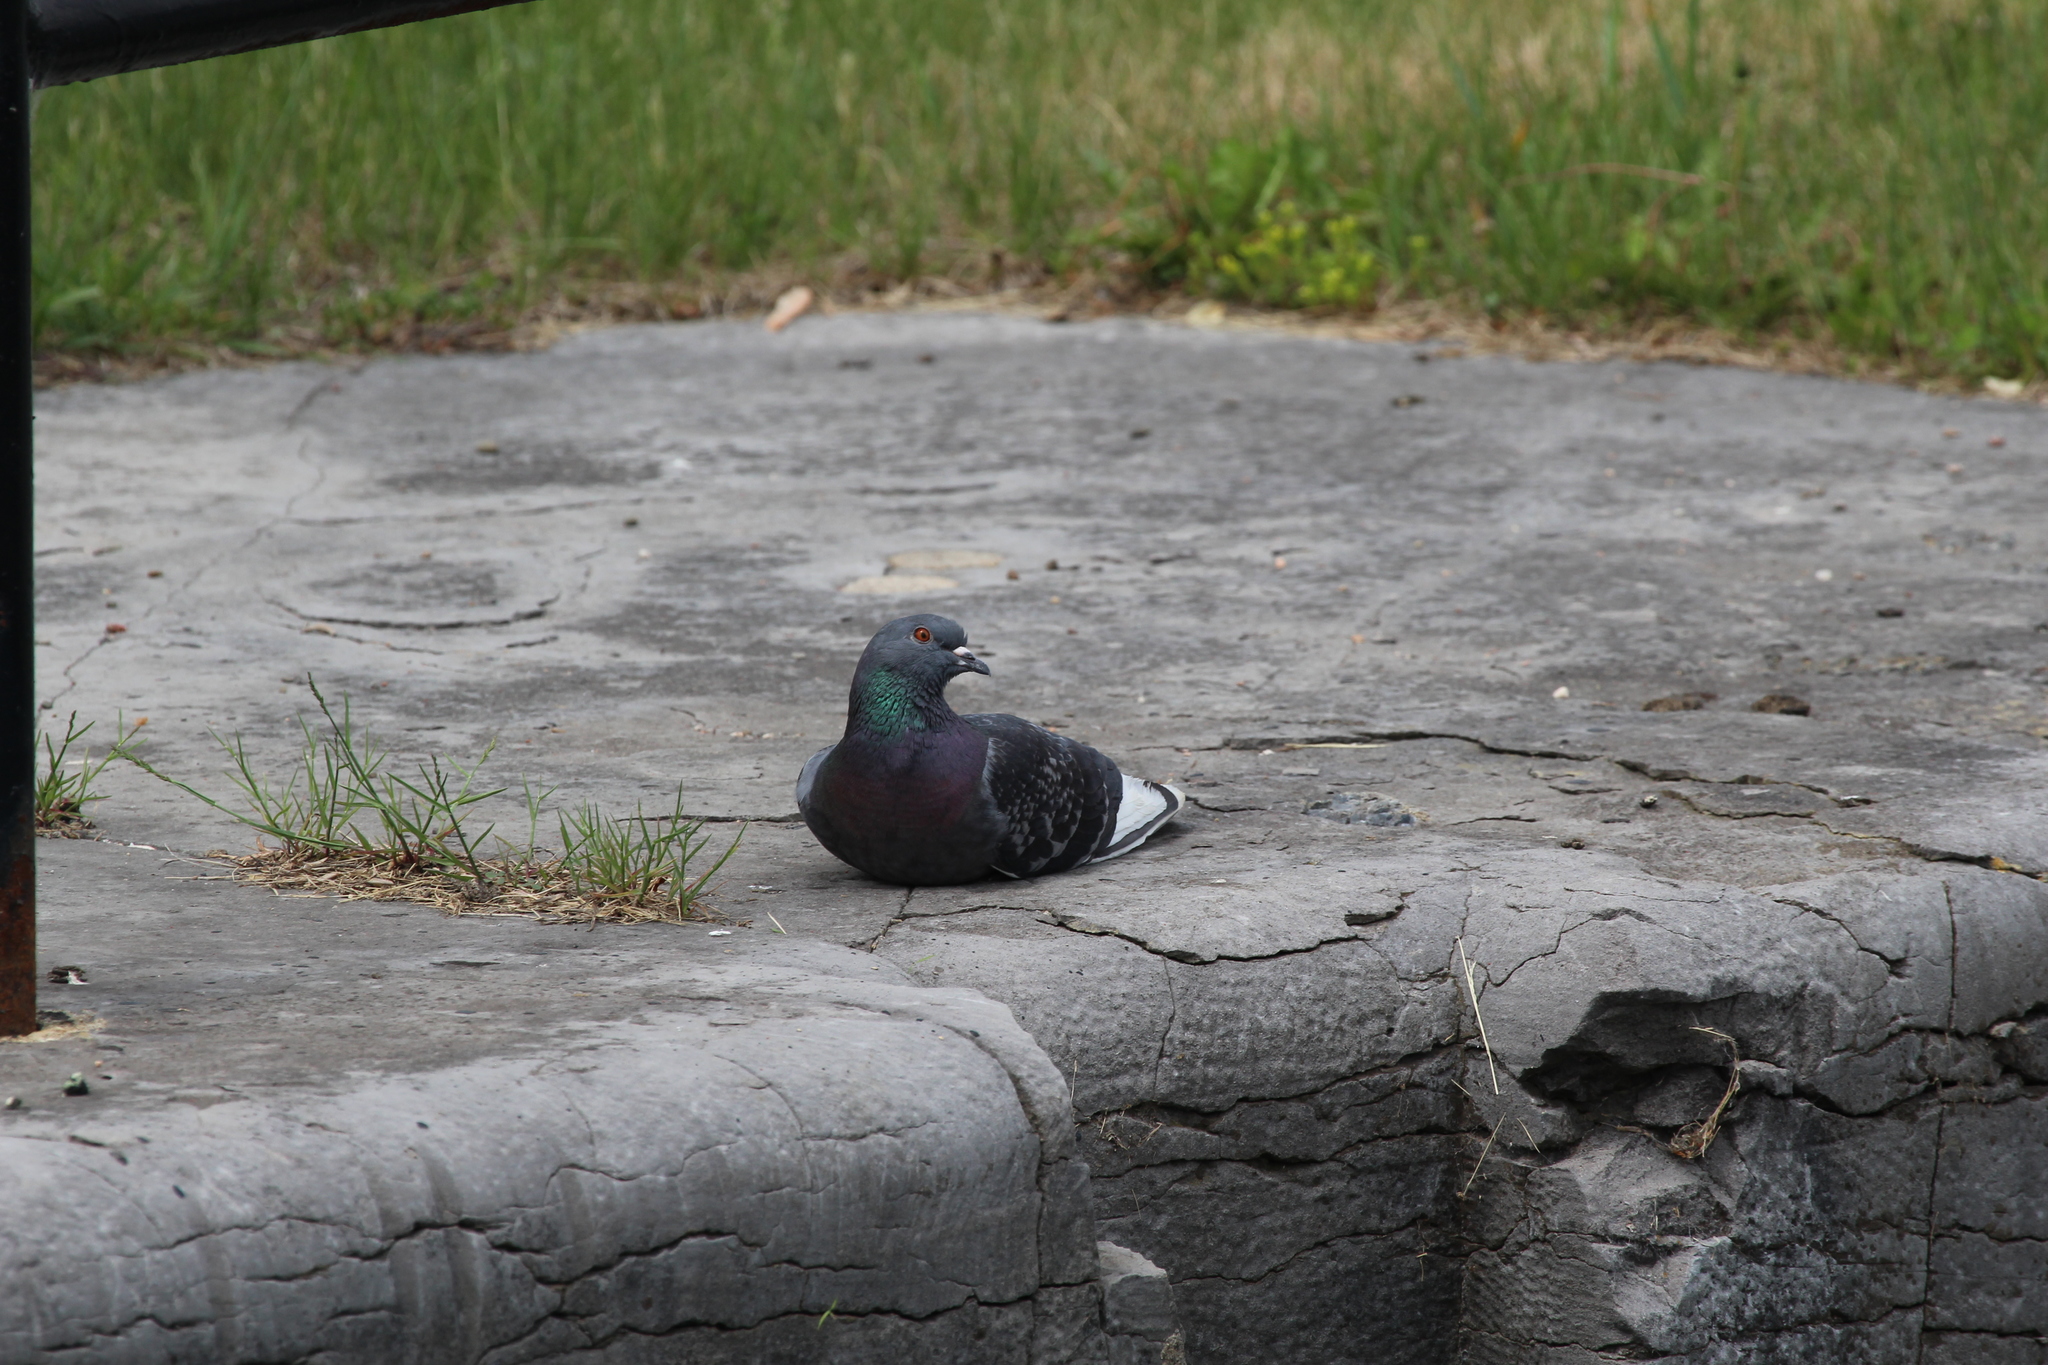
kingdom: Animalia
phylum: Chordata
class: Aves
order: Columbiformes
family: Columbidae
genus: Columba
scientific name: Columba livia
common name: Rock pigeon
